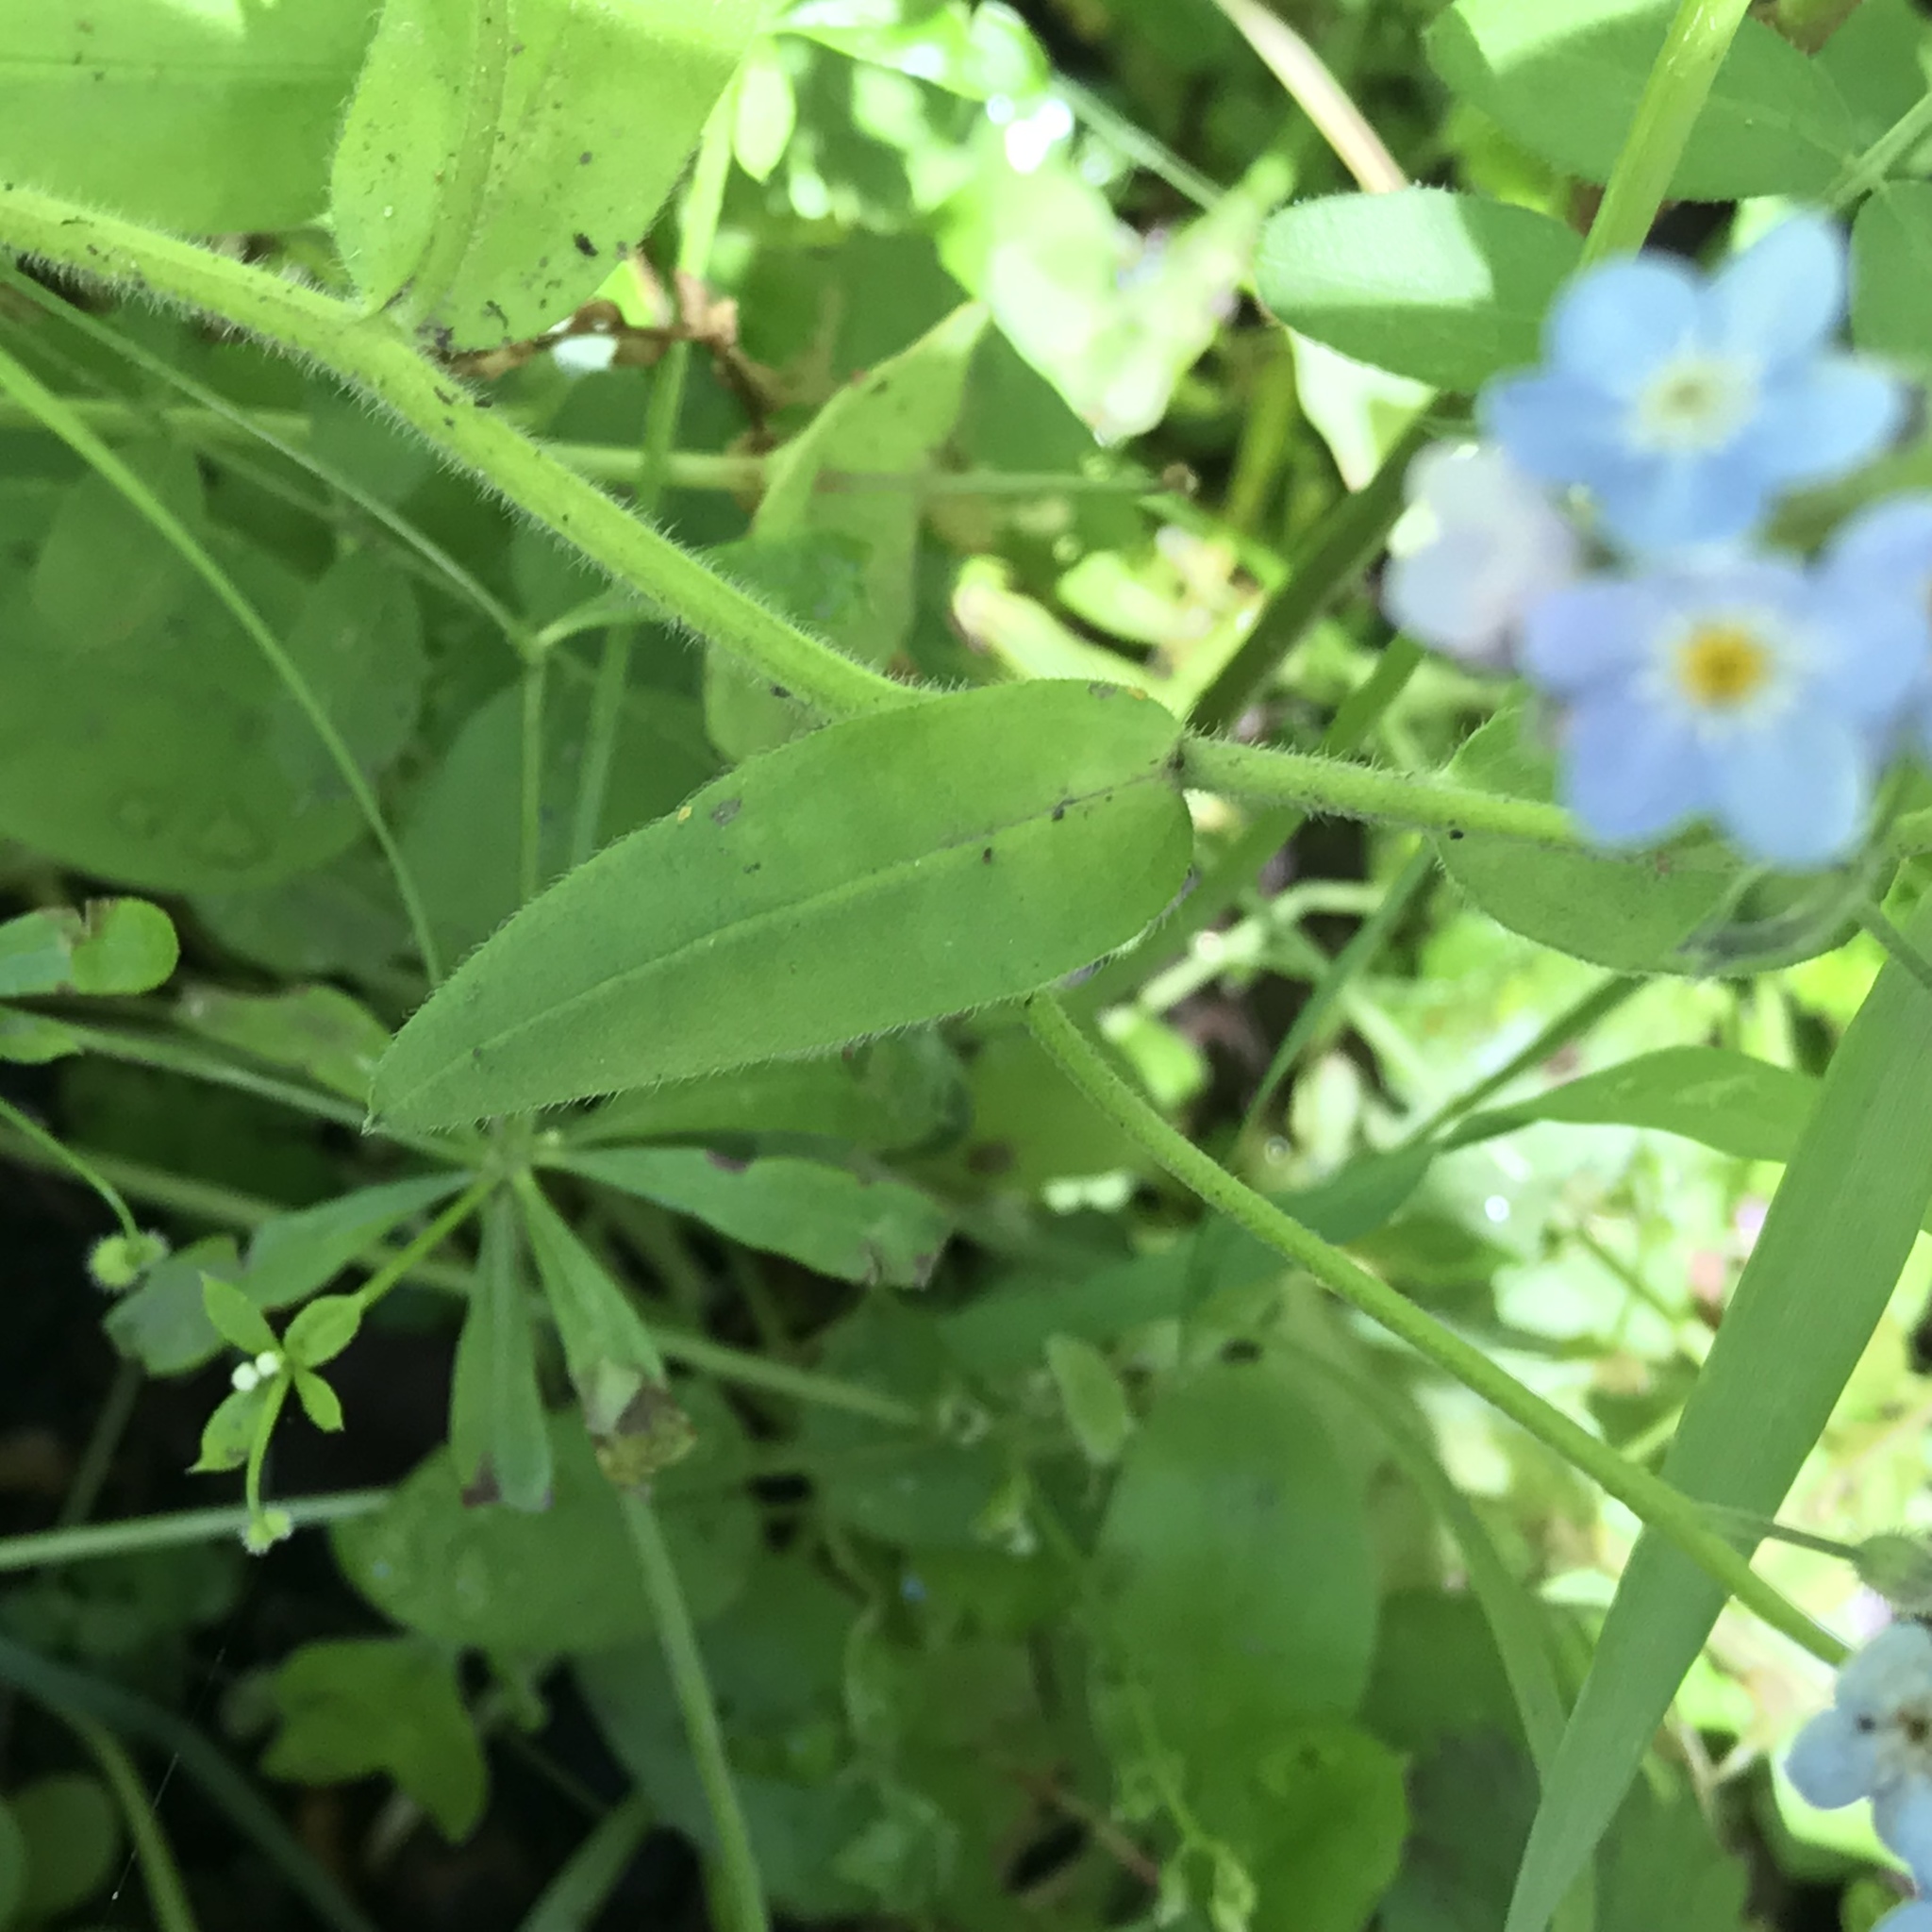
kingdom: Plantae
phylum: Tracheophyta
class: Magnoliopsida
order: Boraginales
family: Boraginaceae
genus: Myosotis
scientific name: Myosotis latifolia
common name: Broadleaf forget-me-not
